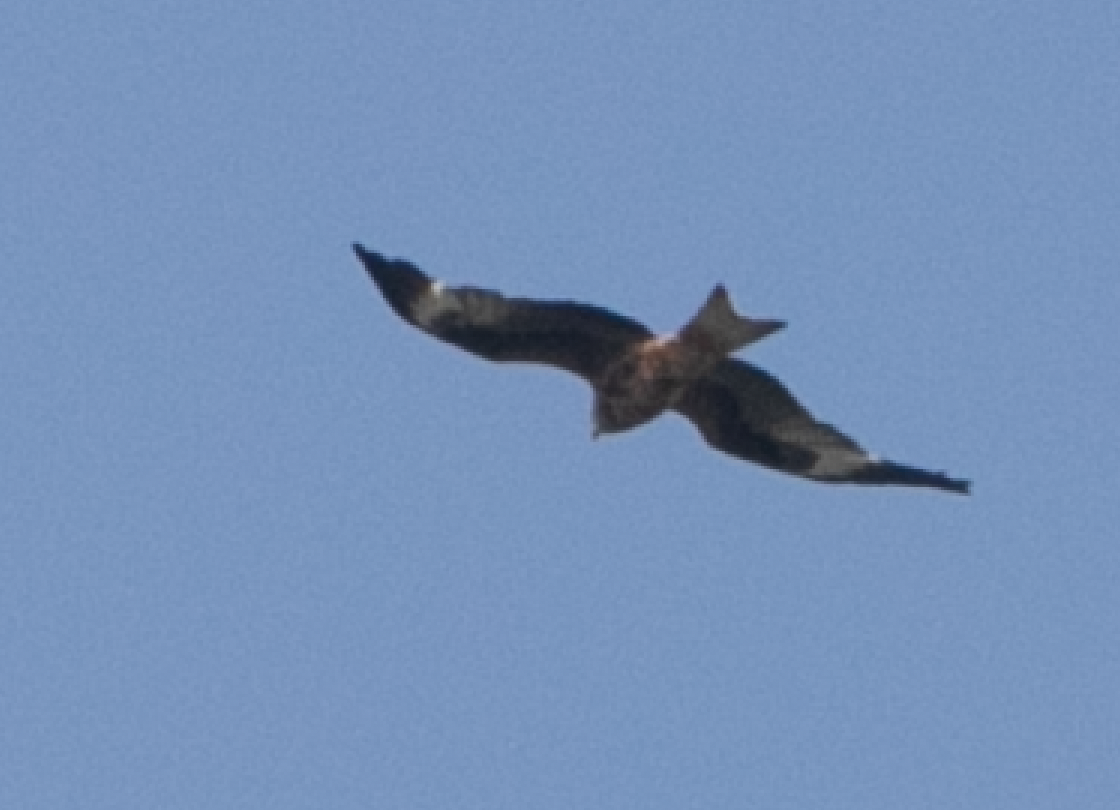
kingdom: Animalia
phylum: Chordata
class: Aves
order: Accipitriformes
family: Accipitridae
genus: Milvus
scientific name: Milvus milvus
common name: Red kite
